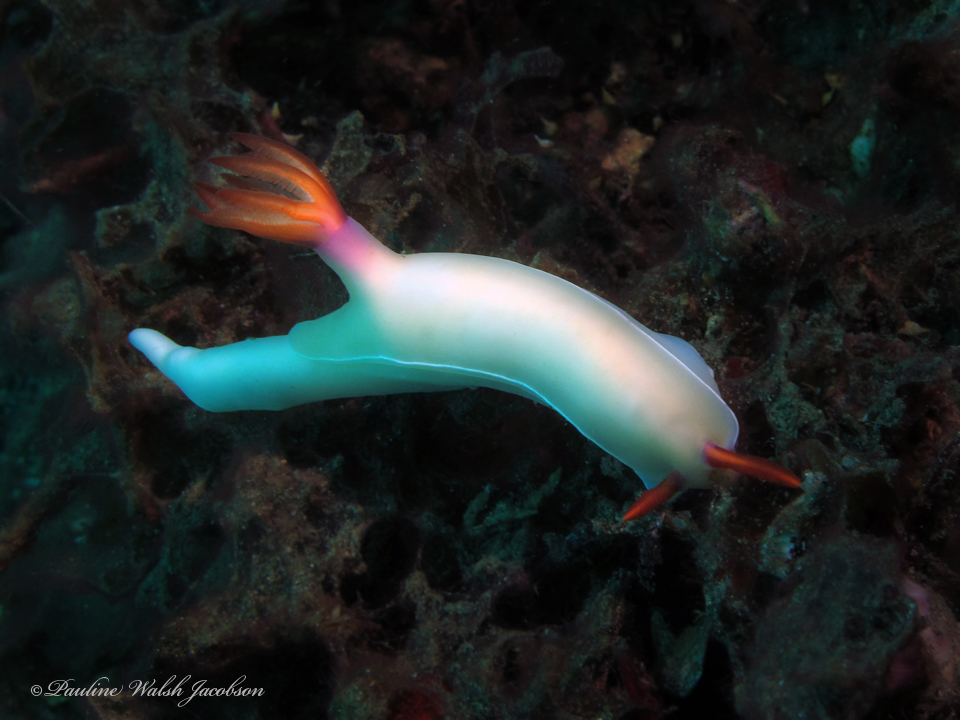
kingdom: Animalia
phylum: Mollusca
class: Gastropoda
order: Nudibranchia
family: Chromodorididae
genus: Hypselodoris
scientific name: Hypselodoris bullockii
